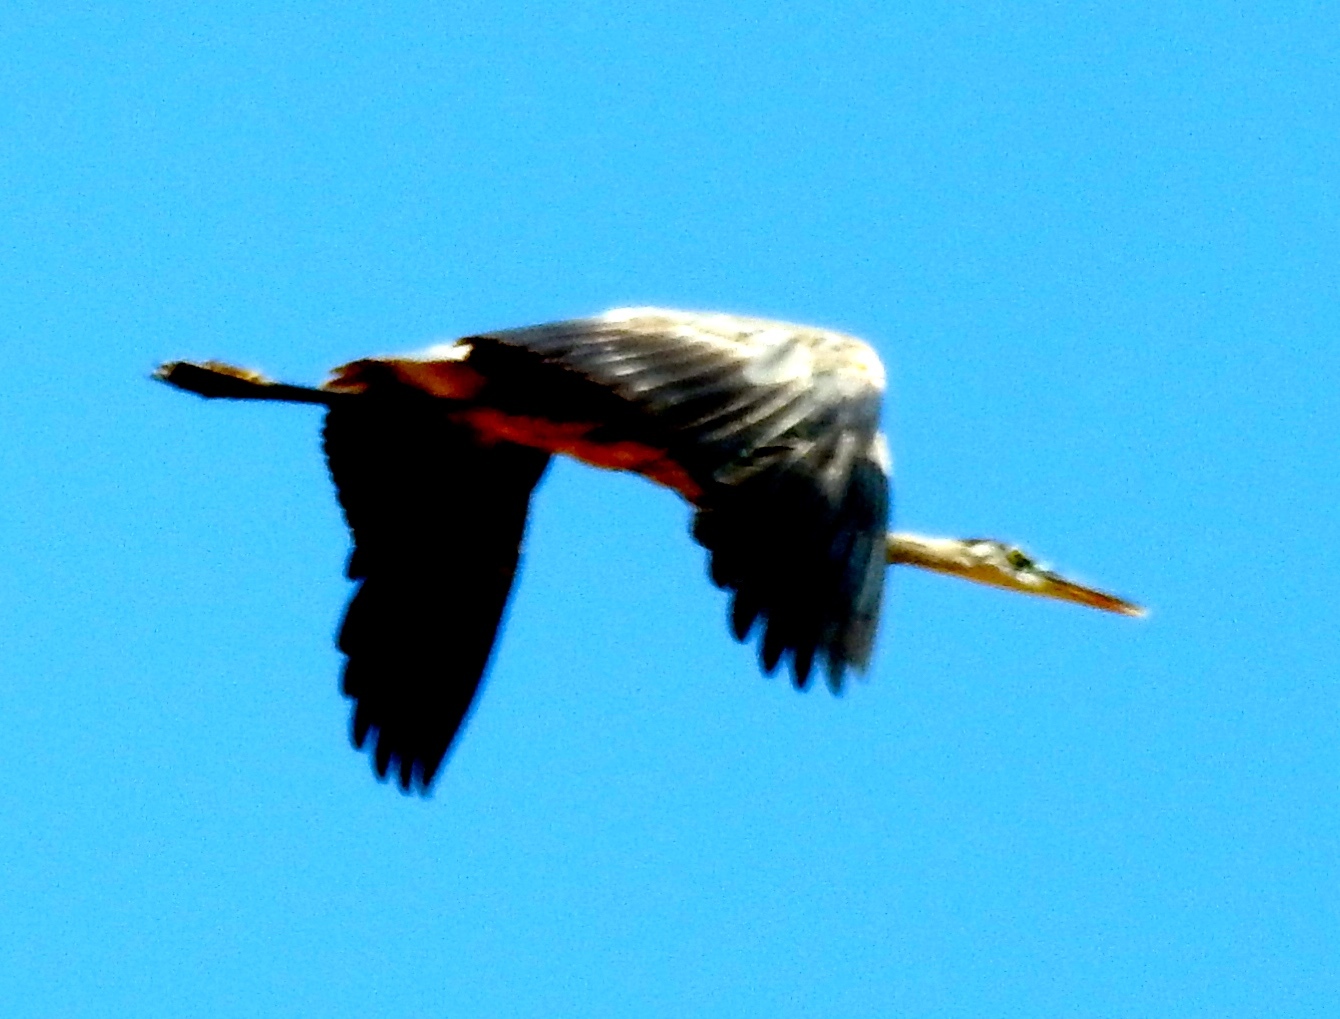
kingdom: Animalia
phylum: Chordata
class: Aves
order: Pelecaniformes
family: Ardeidae
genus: Ardea
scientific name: Ardea herodias
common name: Great blue heron
